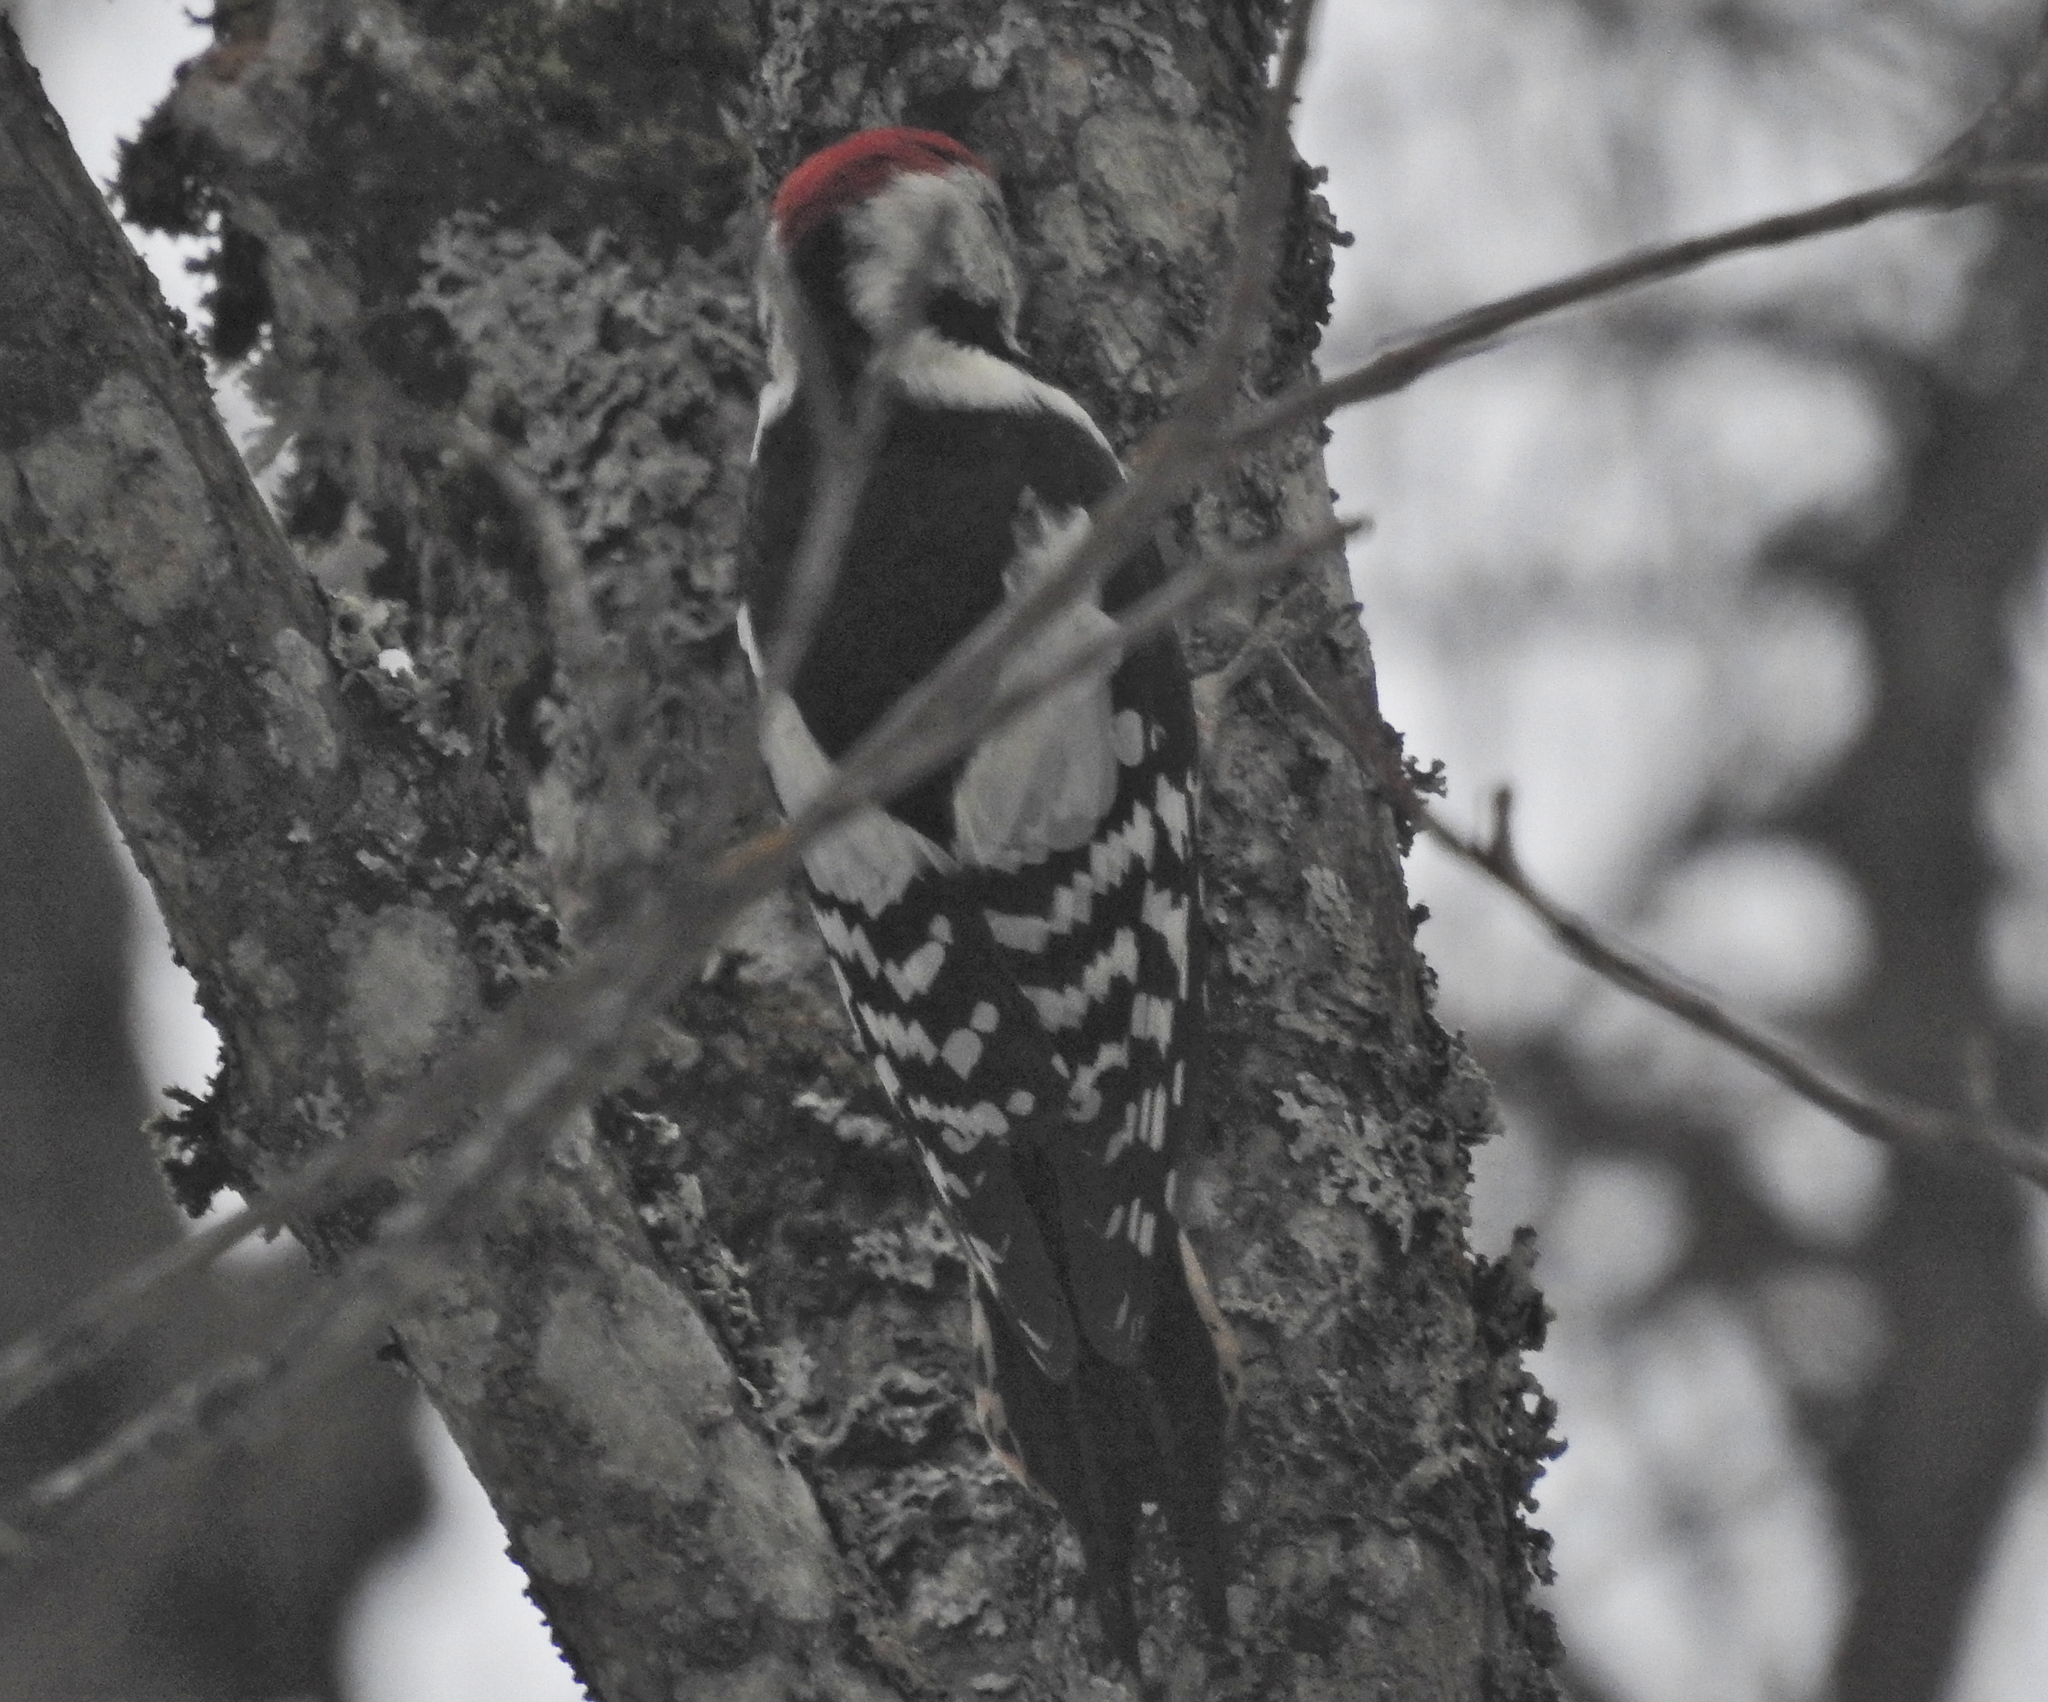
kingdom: Animalia
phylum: Chordata
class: Aves
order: Piciformes
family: Picidae
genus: Dendrocoptes
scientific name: Dendrocoptes medius
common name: Middle spotted woodpecker
